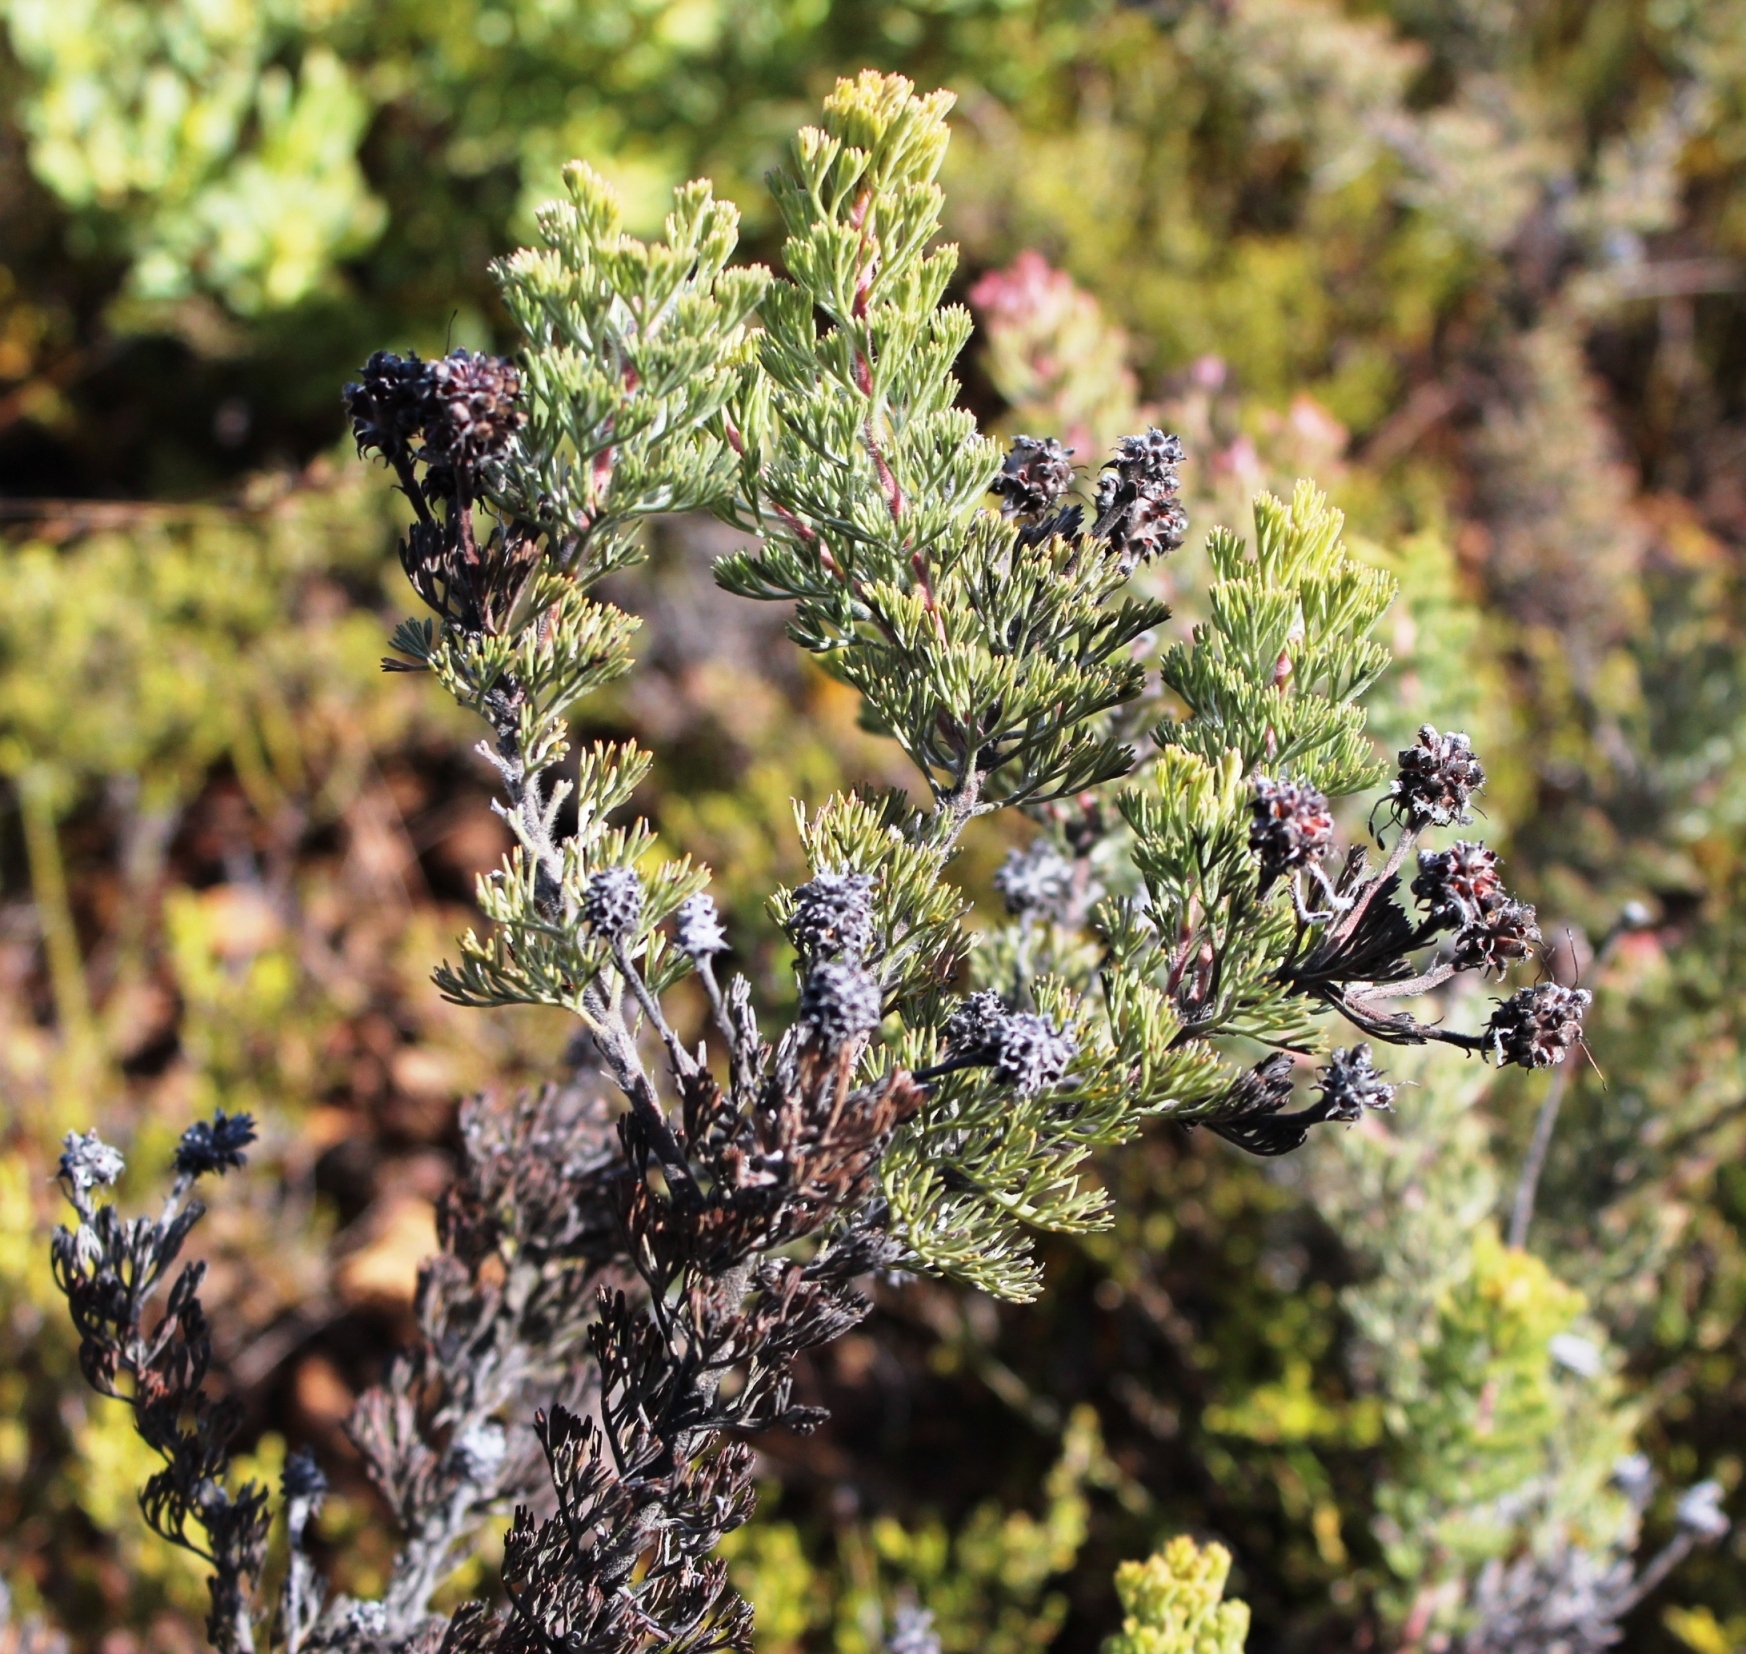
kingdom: Plantae
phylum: Tracheophyta
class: Magnoliopsida
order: Proteales
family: Proteaceae
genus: Serruria
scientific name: Serruria aitonii
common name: Marshmallow spiderhead
